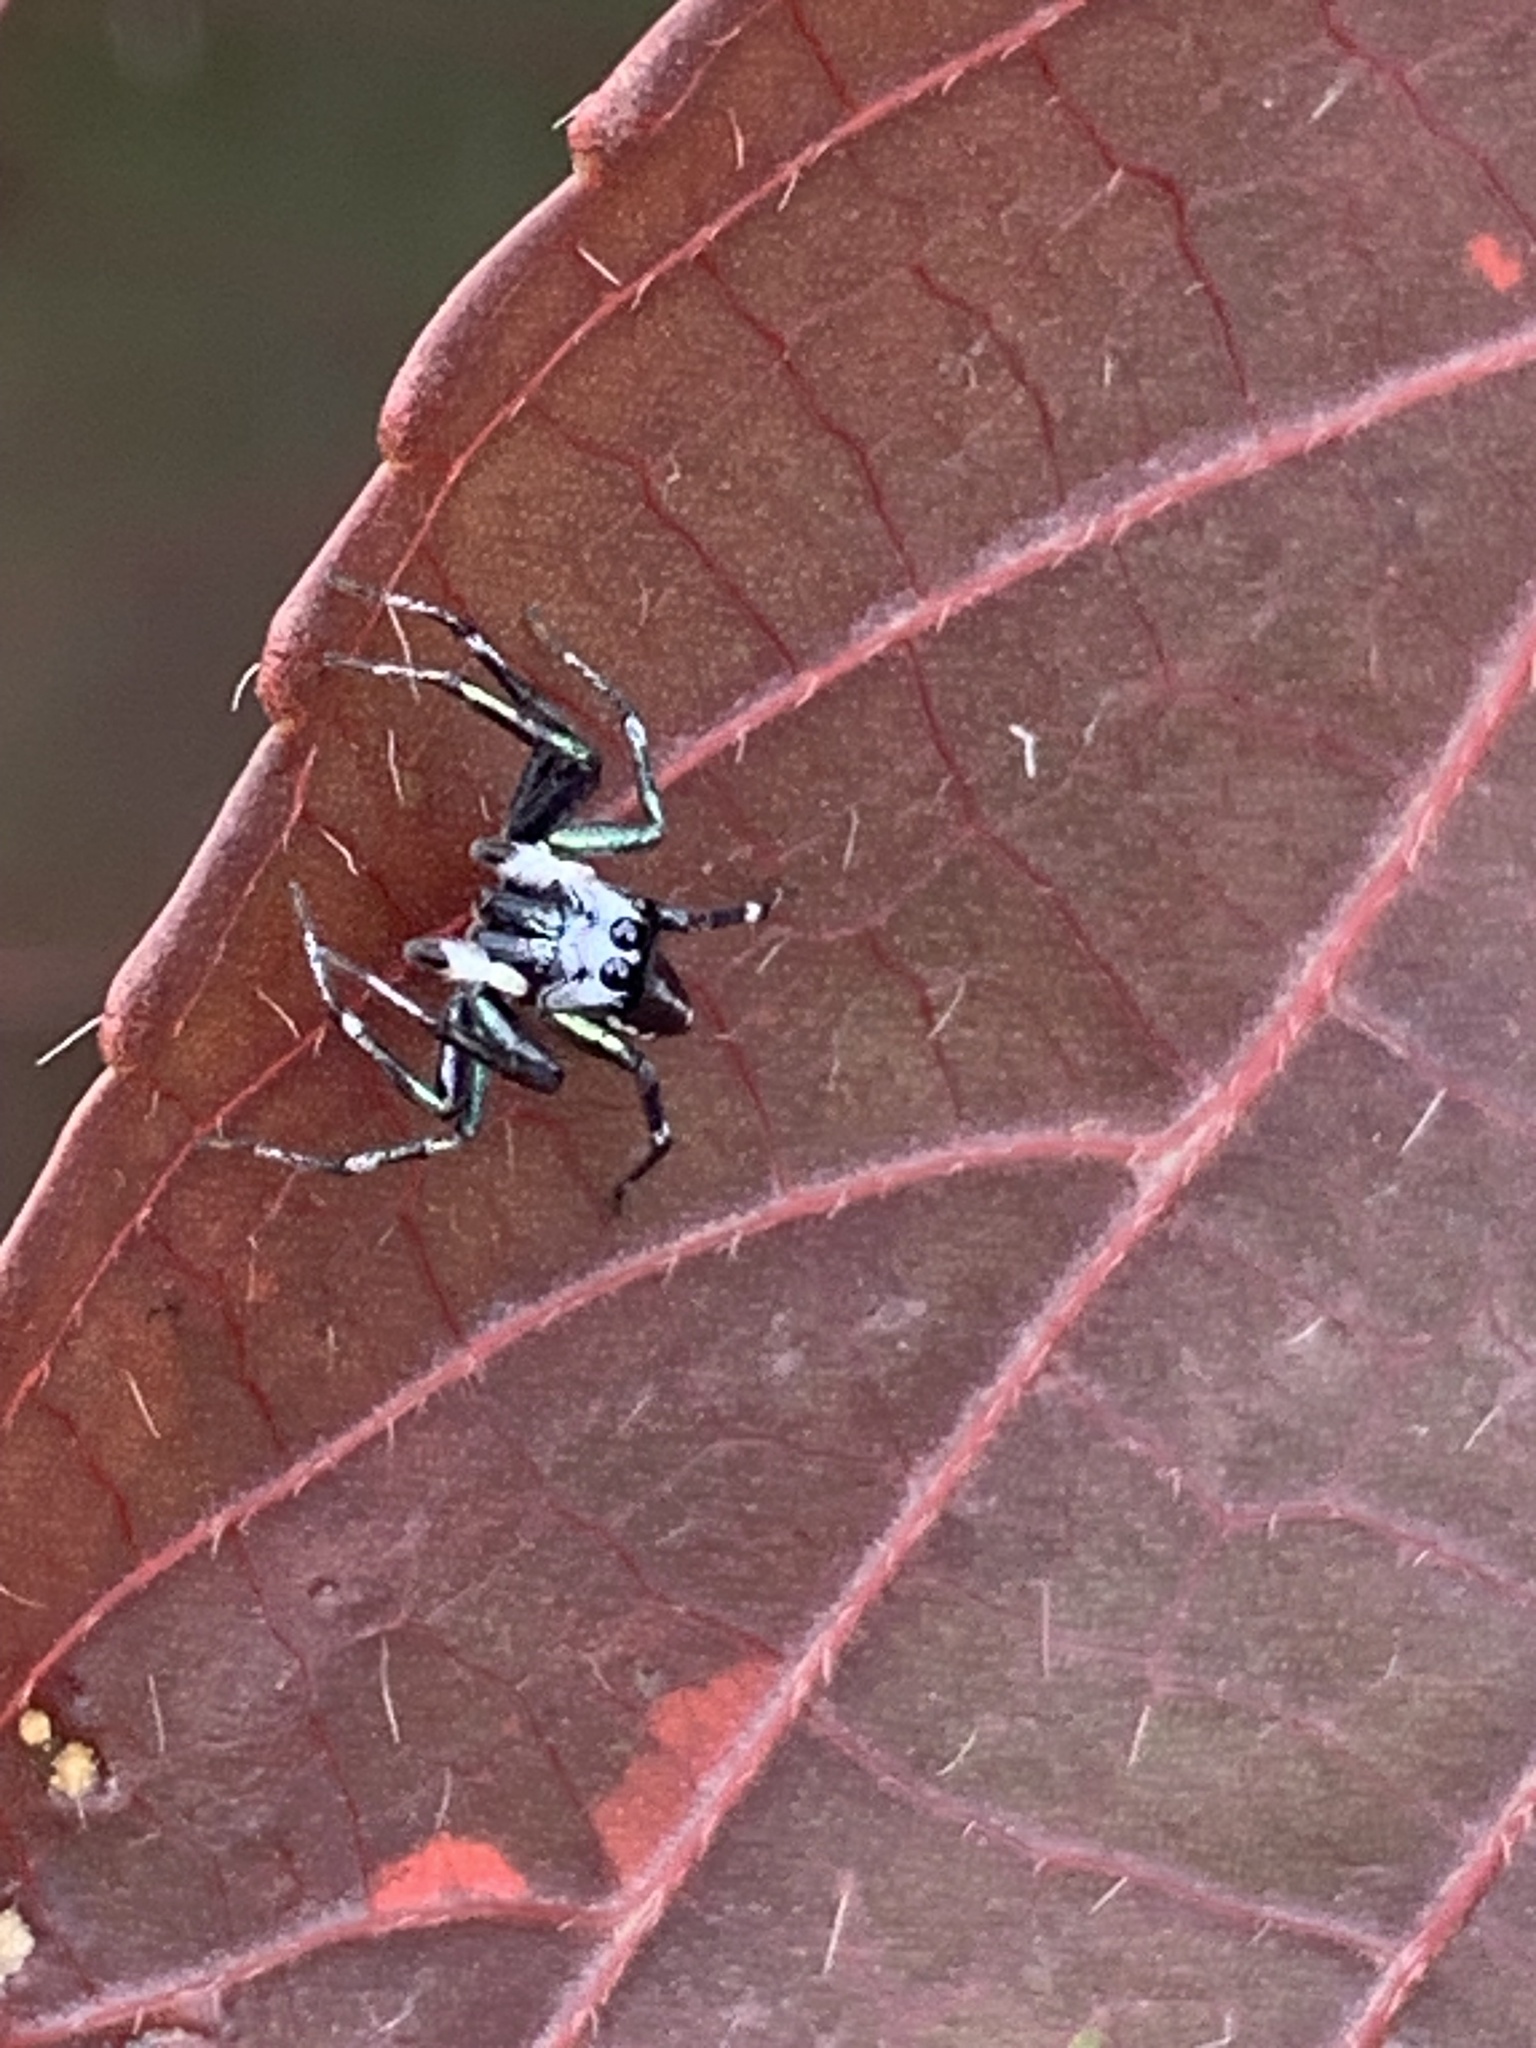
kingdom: Animalia
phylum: Arthropoda
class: Arachnida
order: Araneae
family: Salticidae
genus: Cosmophasis
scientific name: Cosmophasis thalassina
